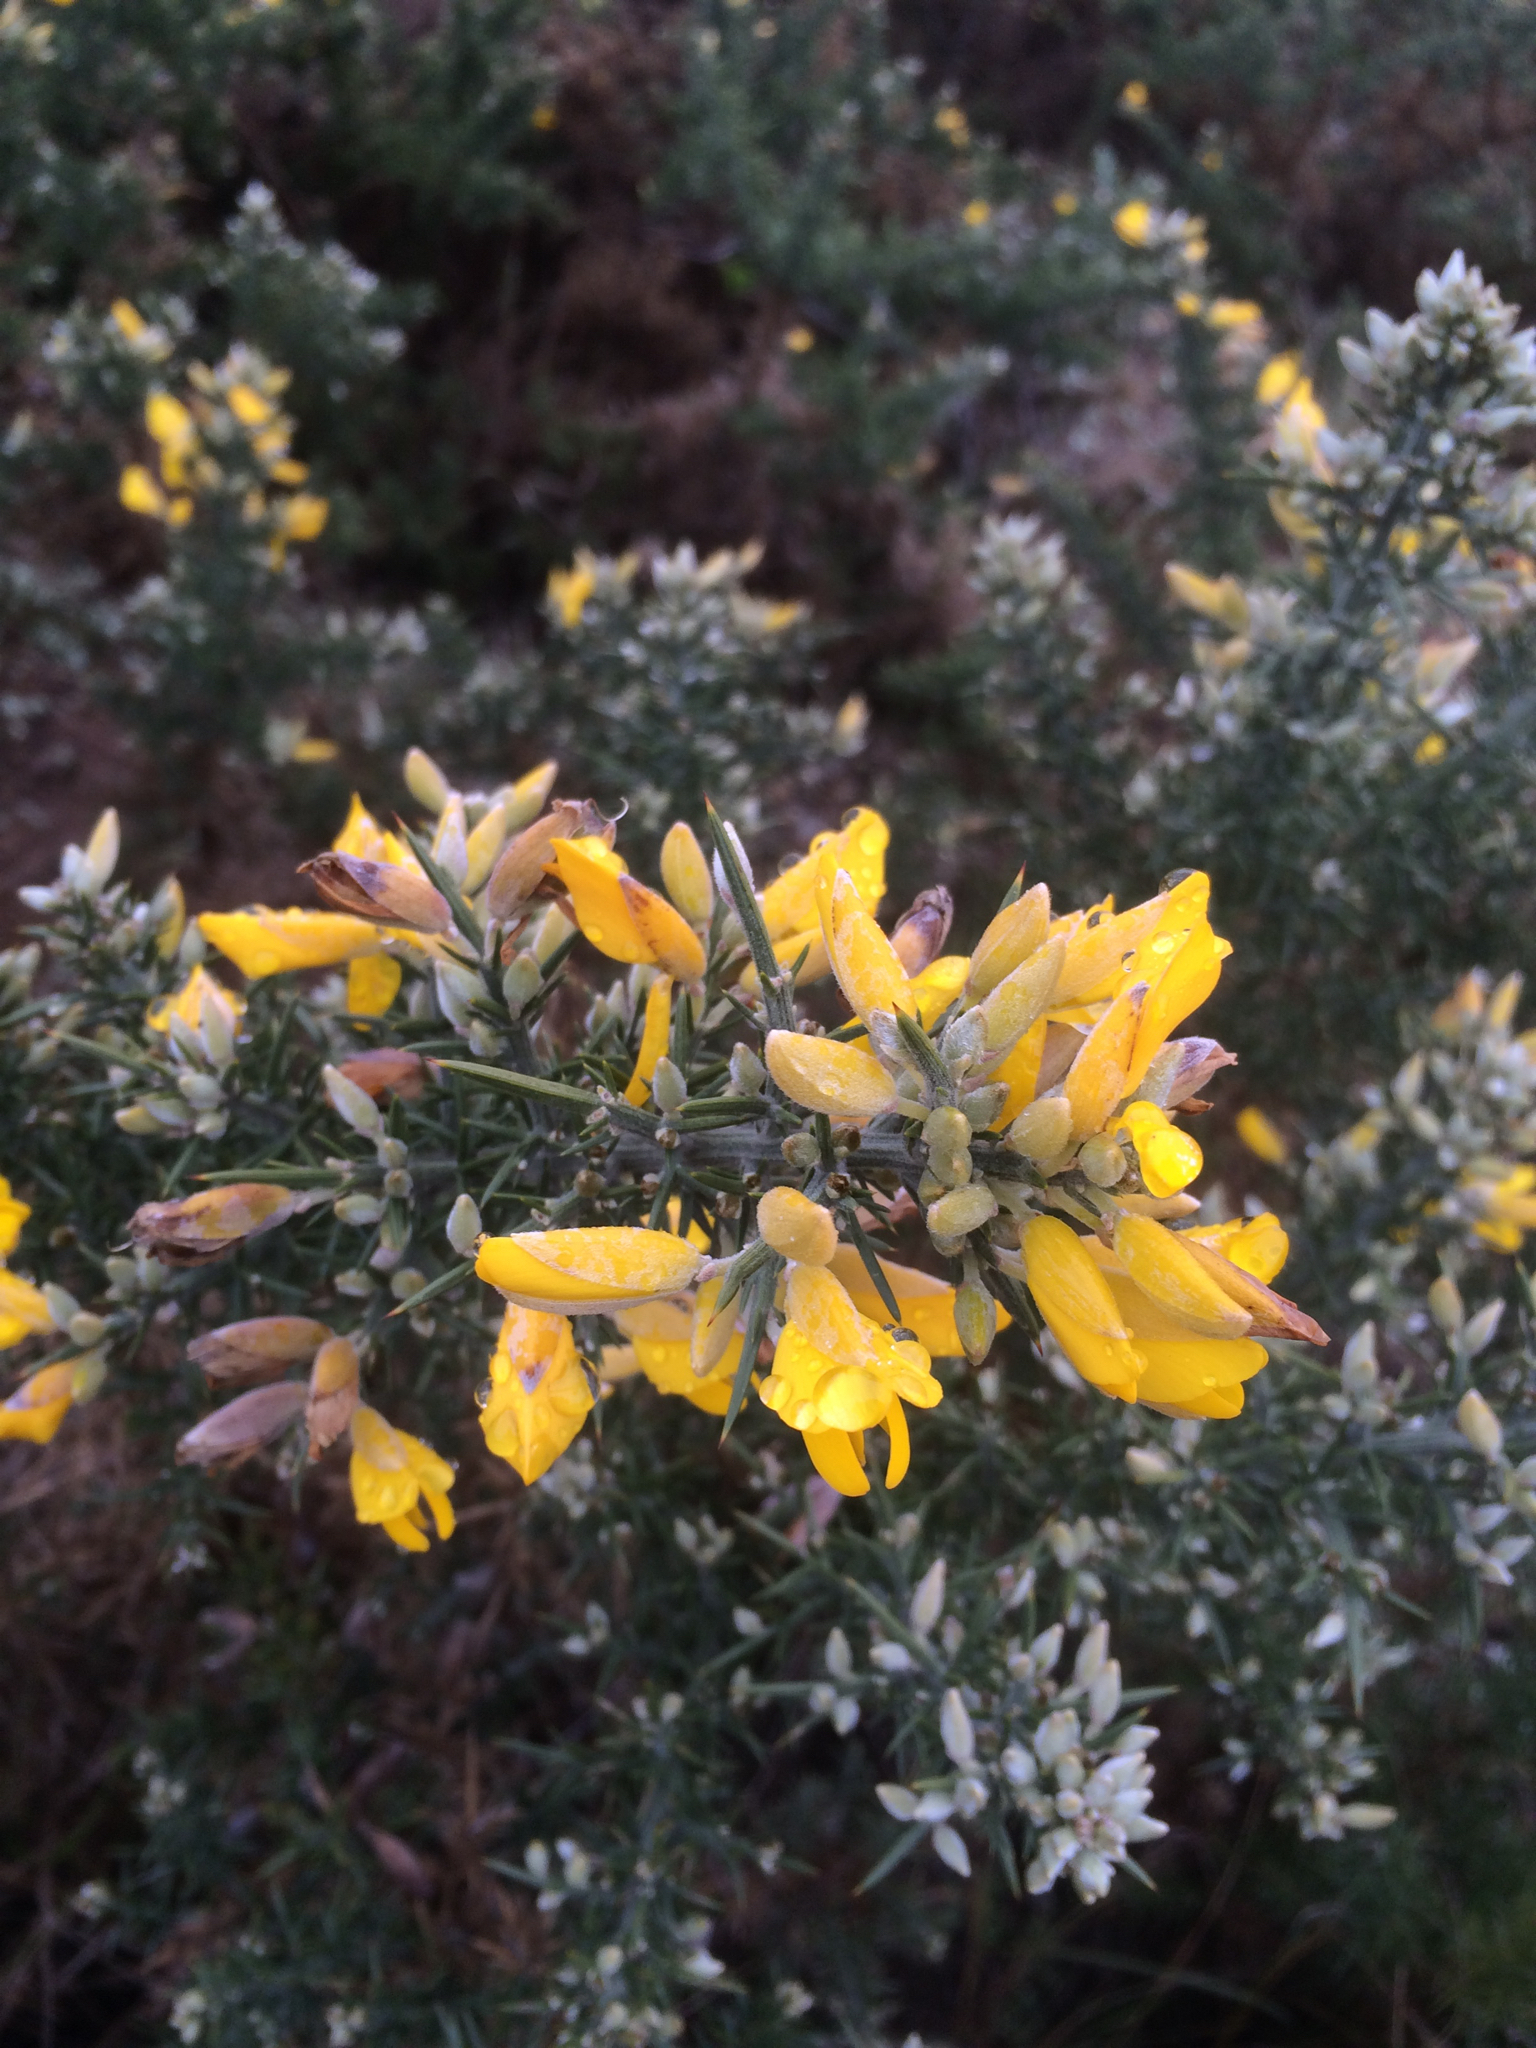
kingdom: Plantae
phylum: Tracheophyta
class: Magnoliopsida
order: Fabales
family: Fabaceae
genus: Ulex
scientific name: Ulex europaeus
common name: Common gorse
